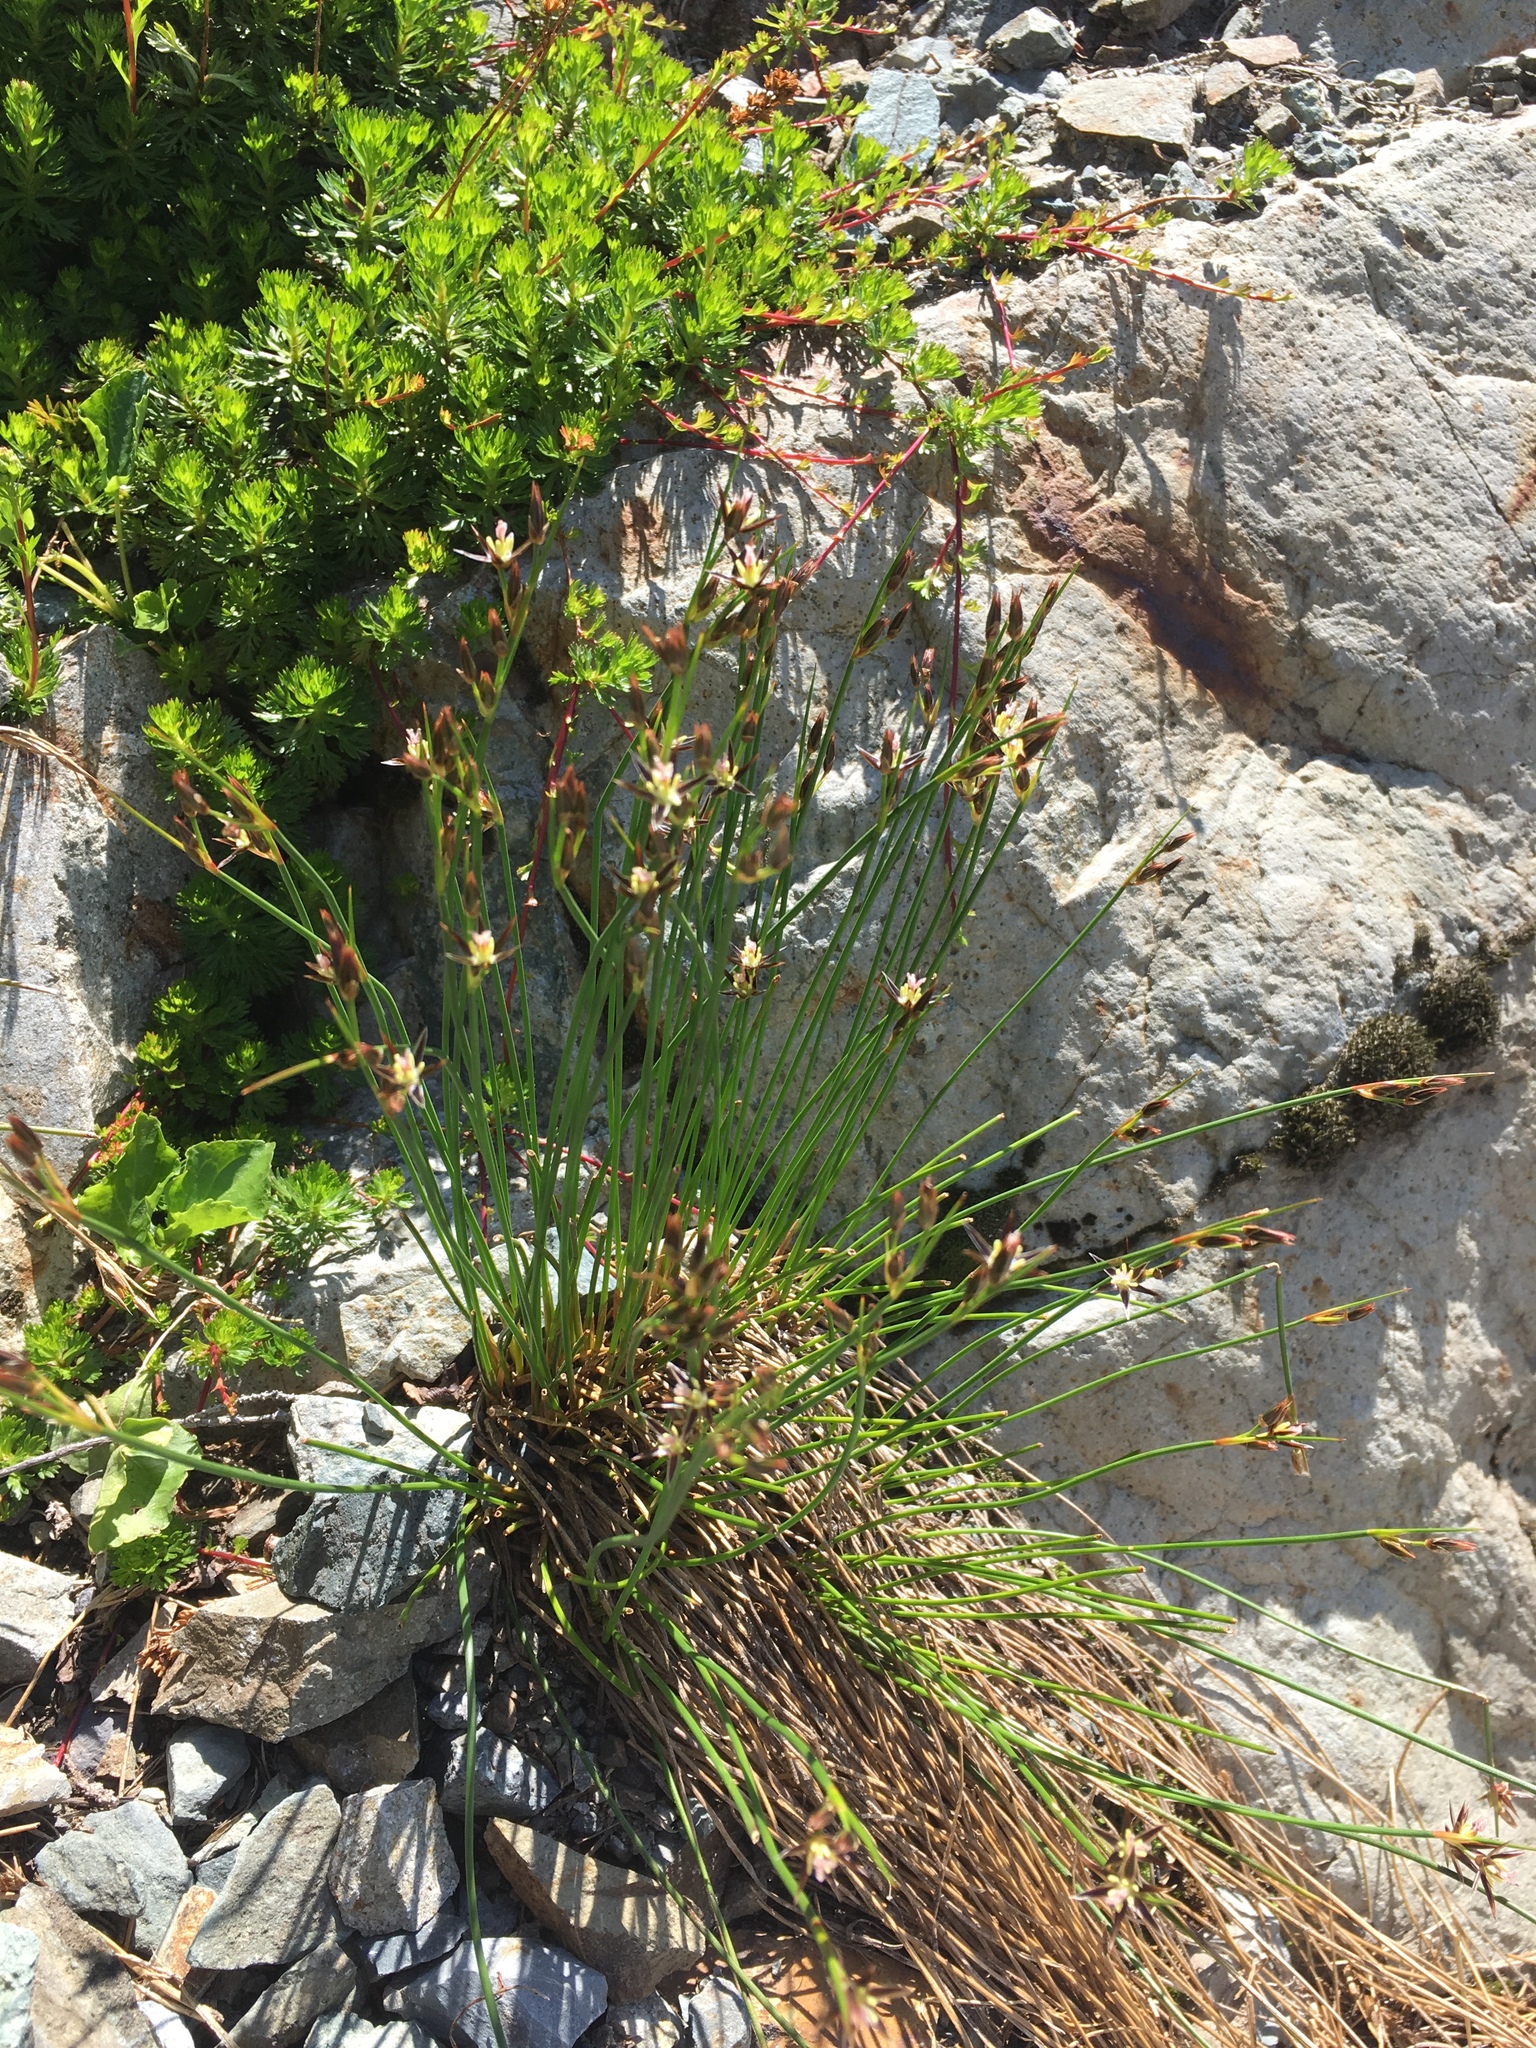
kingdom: Plantae
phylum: Tracheophyta
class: Liliopsida
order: Poales
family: Juncaceae
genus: Juncus
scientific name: Juncus parryi
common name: Parry's rush
